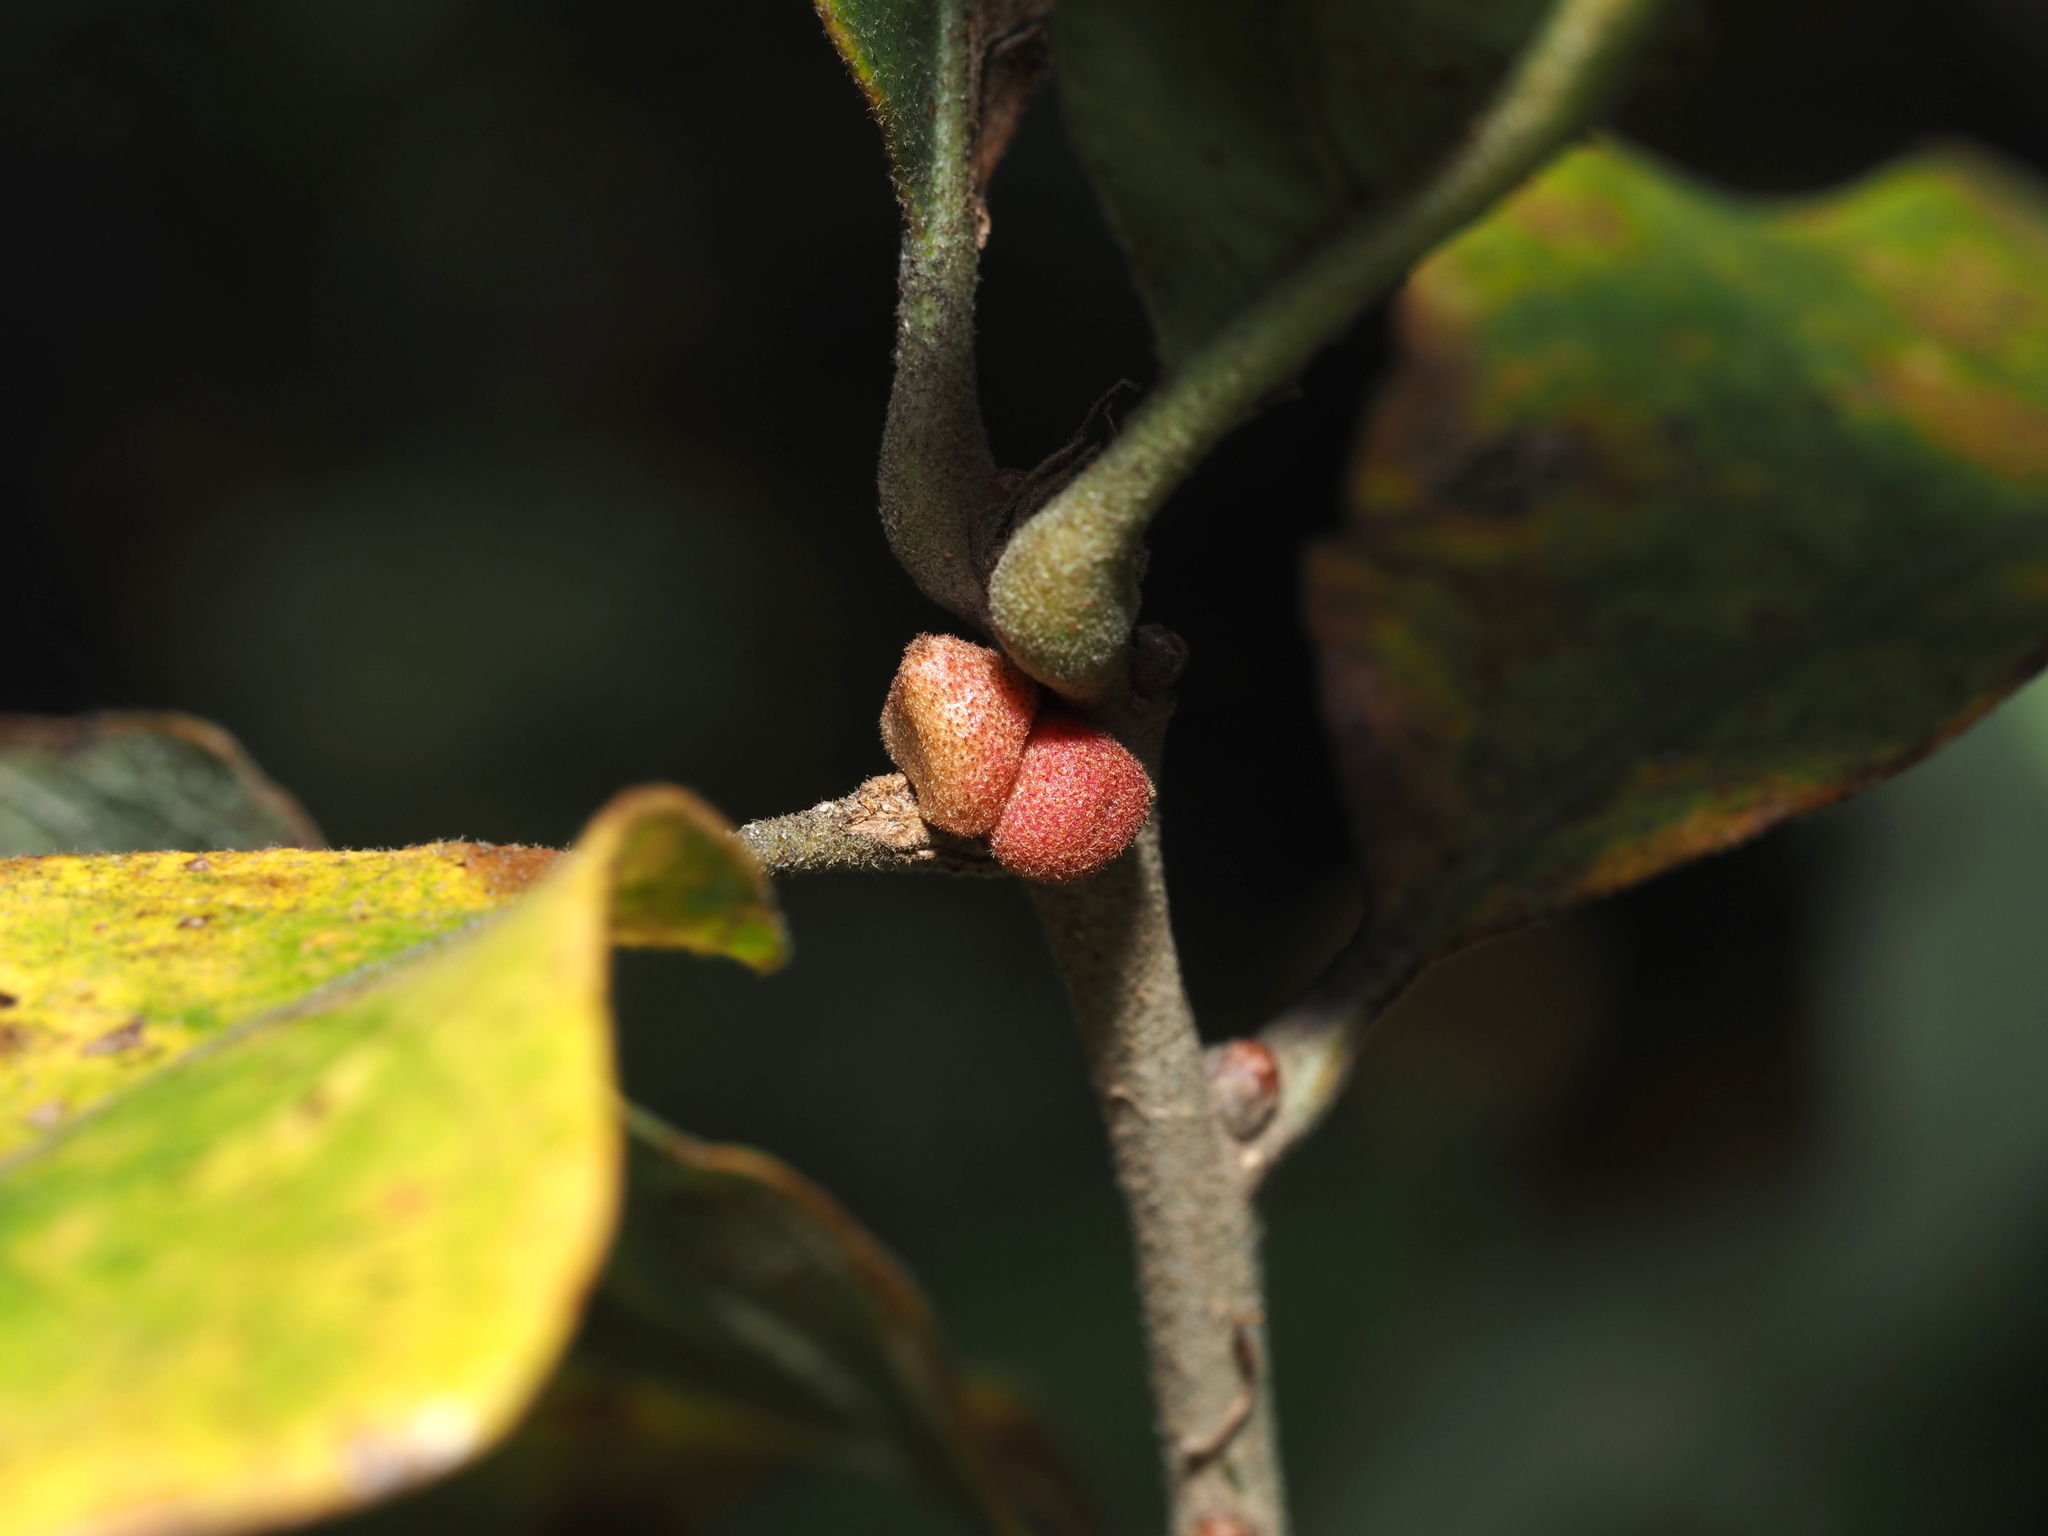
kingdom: Animalia
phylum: Arthropoda
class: Insecta
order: Hymenoptera
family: Cynipidae
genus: Andricus
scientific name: Andricus
